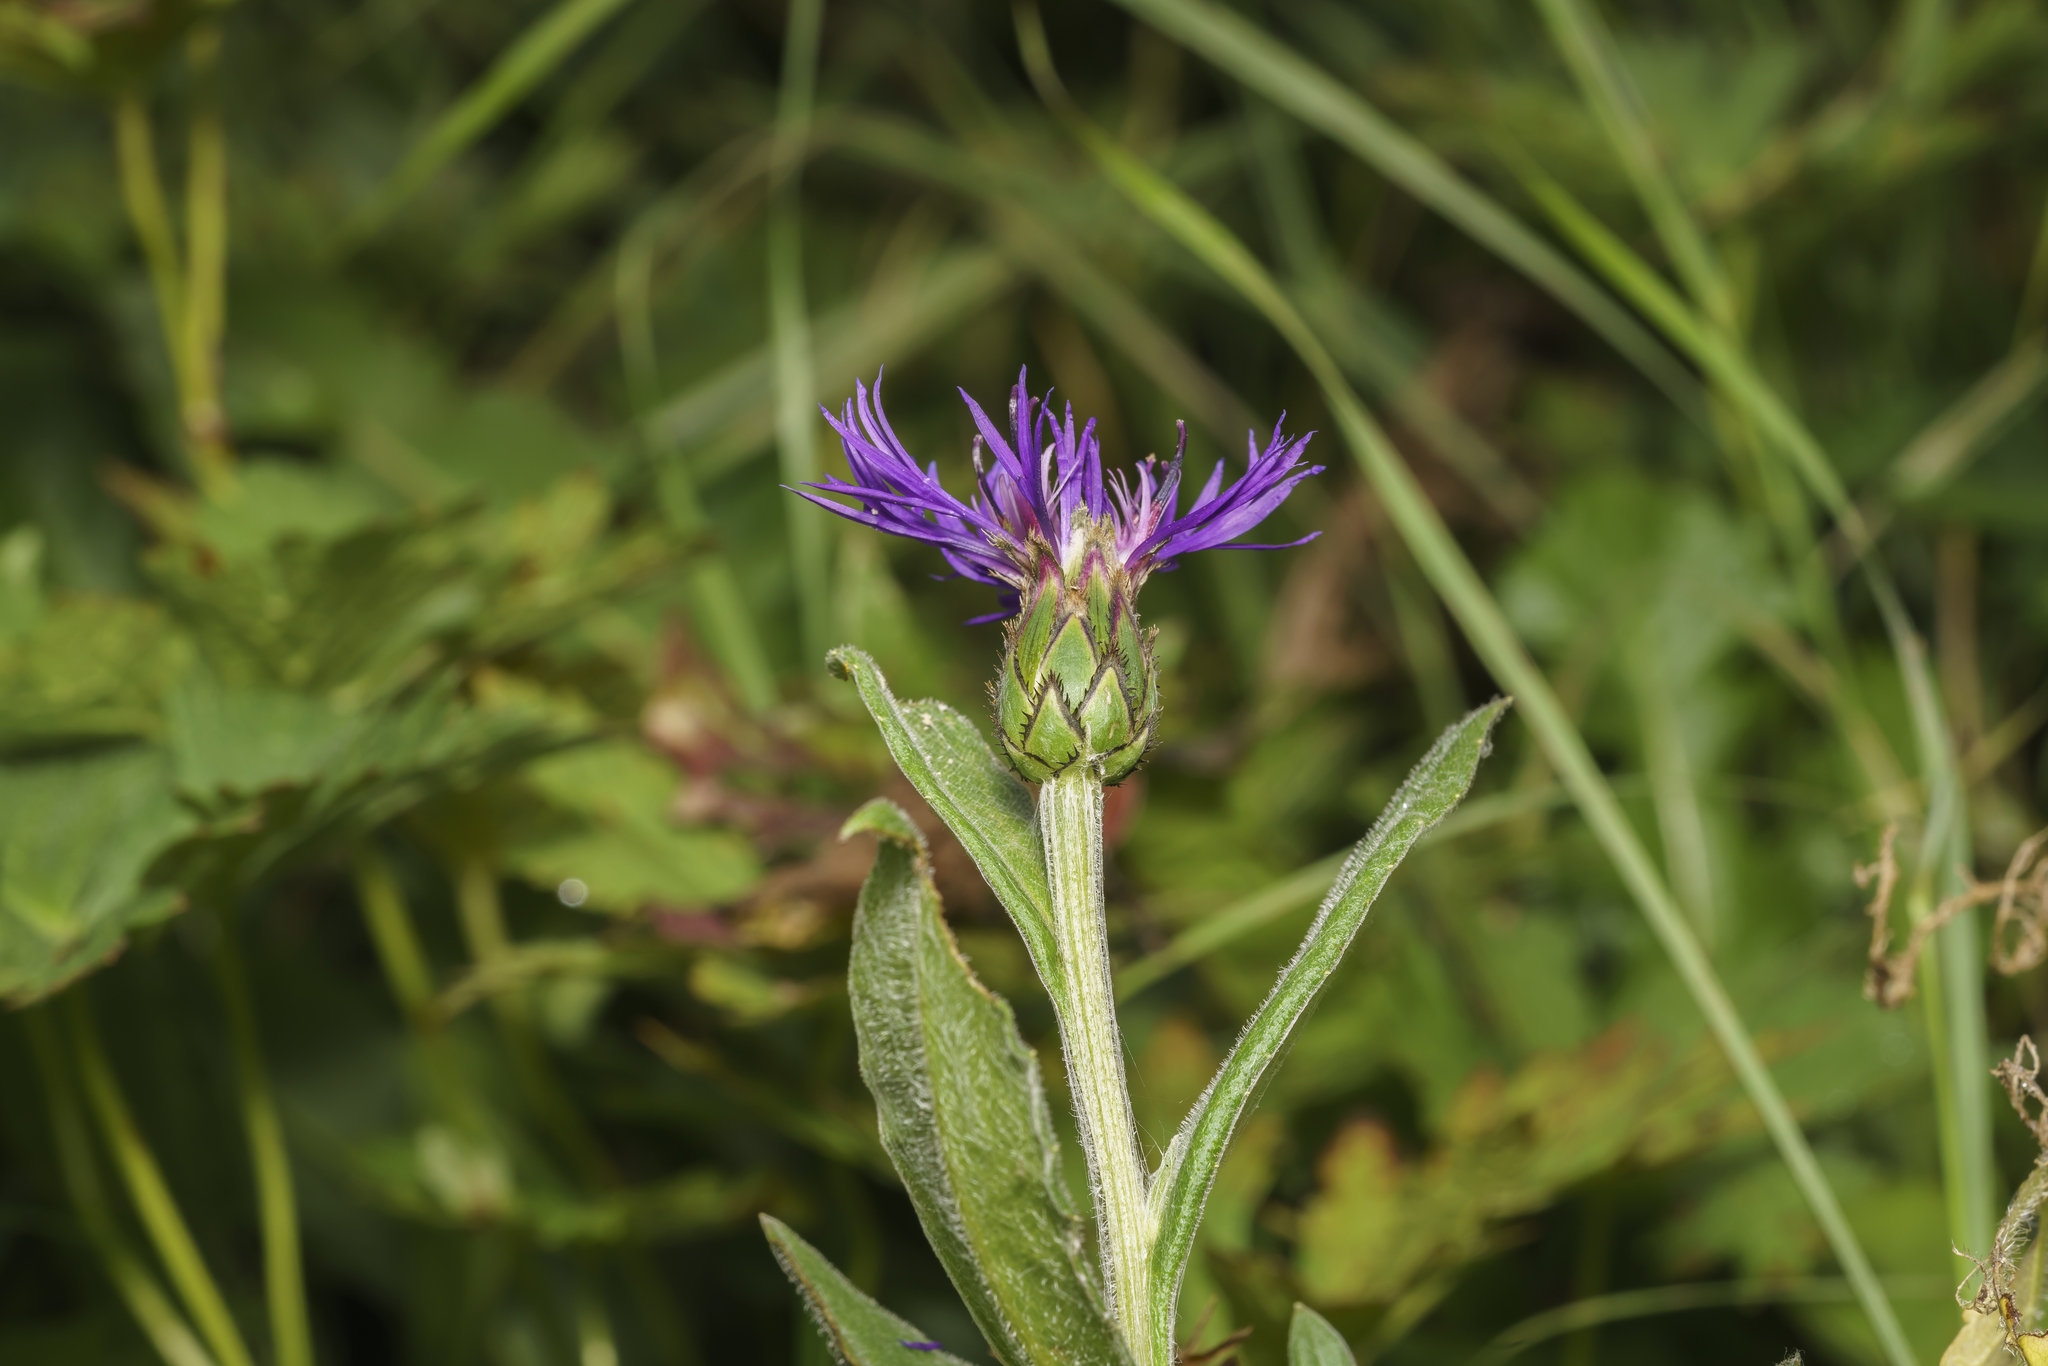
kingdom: Plantae
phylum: Tracheophyta
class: Magnoliopsida
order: Asterales
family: Asteraceae
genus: Centaurea
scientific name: Centaurea montana
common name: Perennial cornflower
